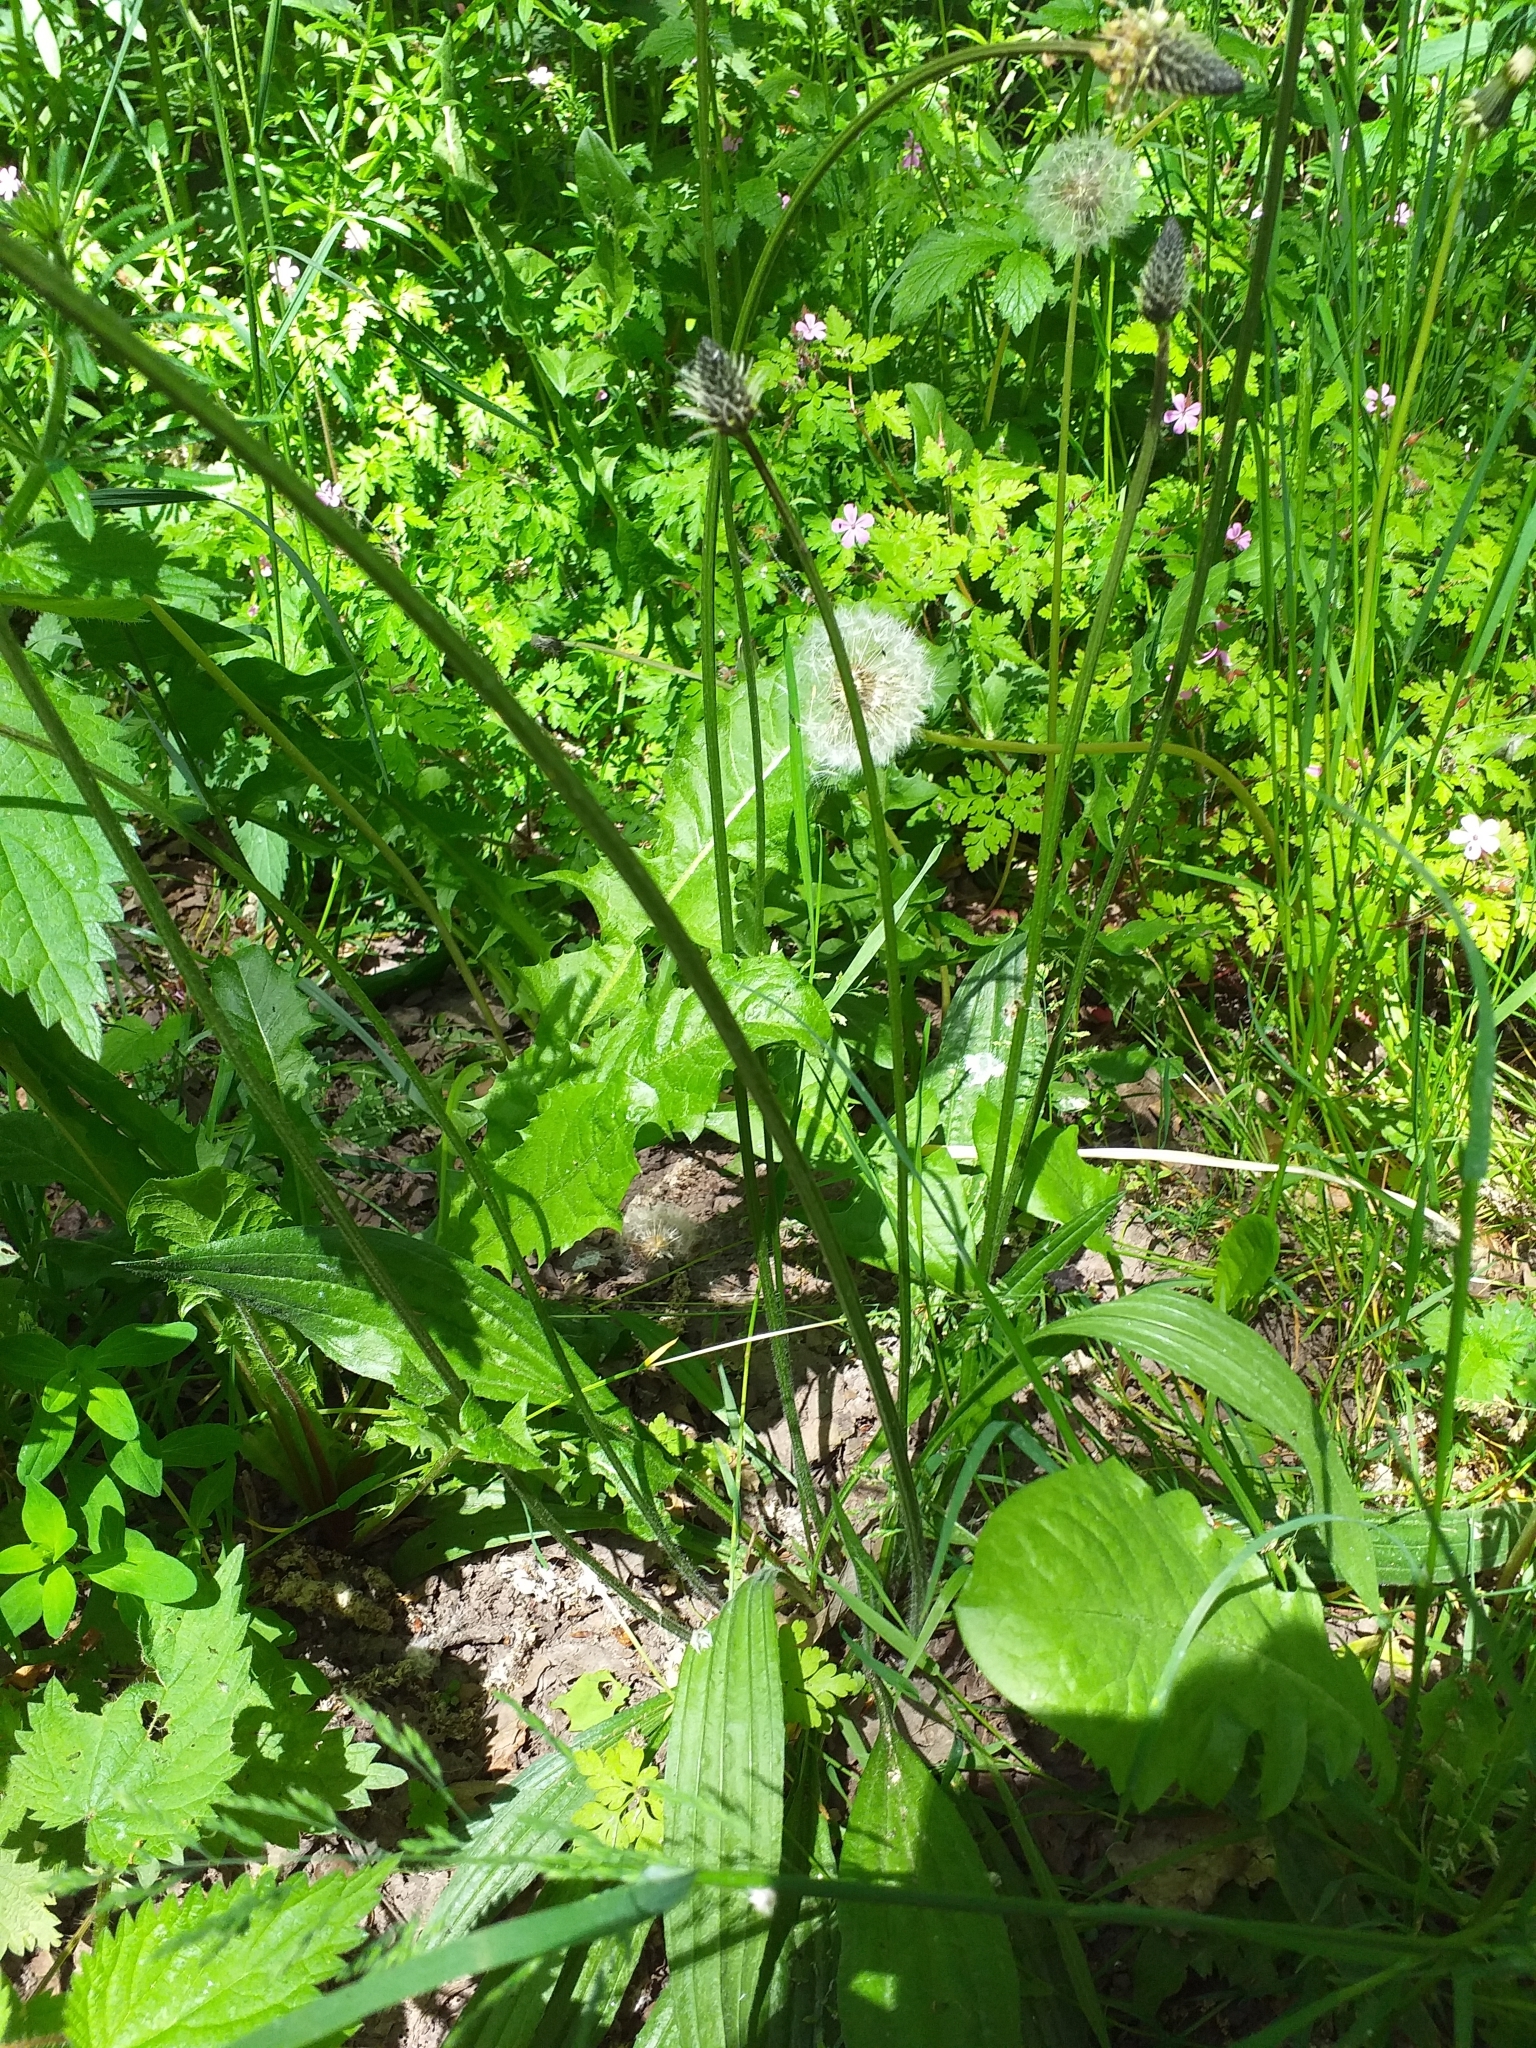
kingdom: Plantae
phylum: Tracheophyta
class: Magnoliopsida
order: Lamiales
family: Plantaginaceae
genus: Plantago
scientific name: Plantago lanceolata
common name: Ribwort plantain
